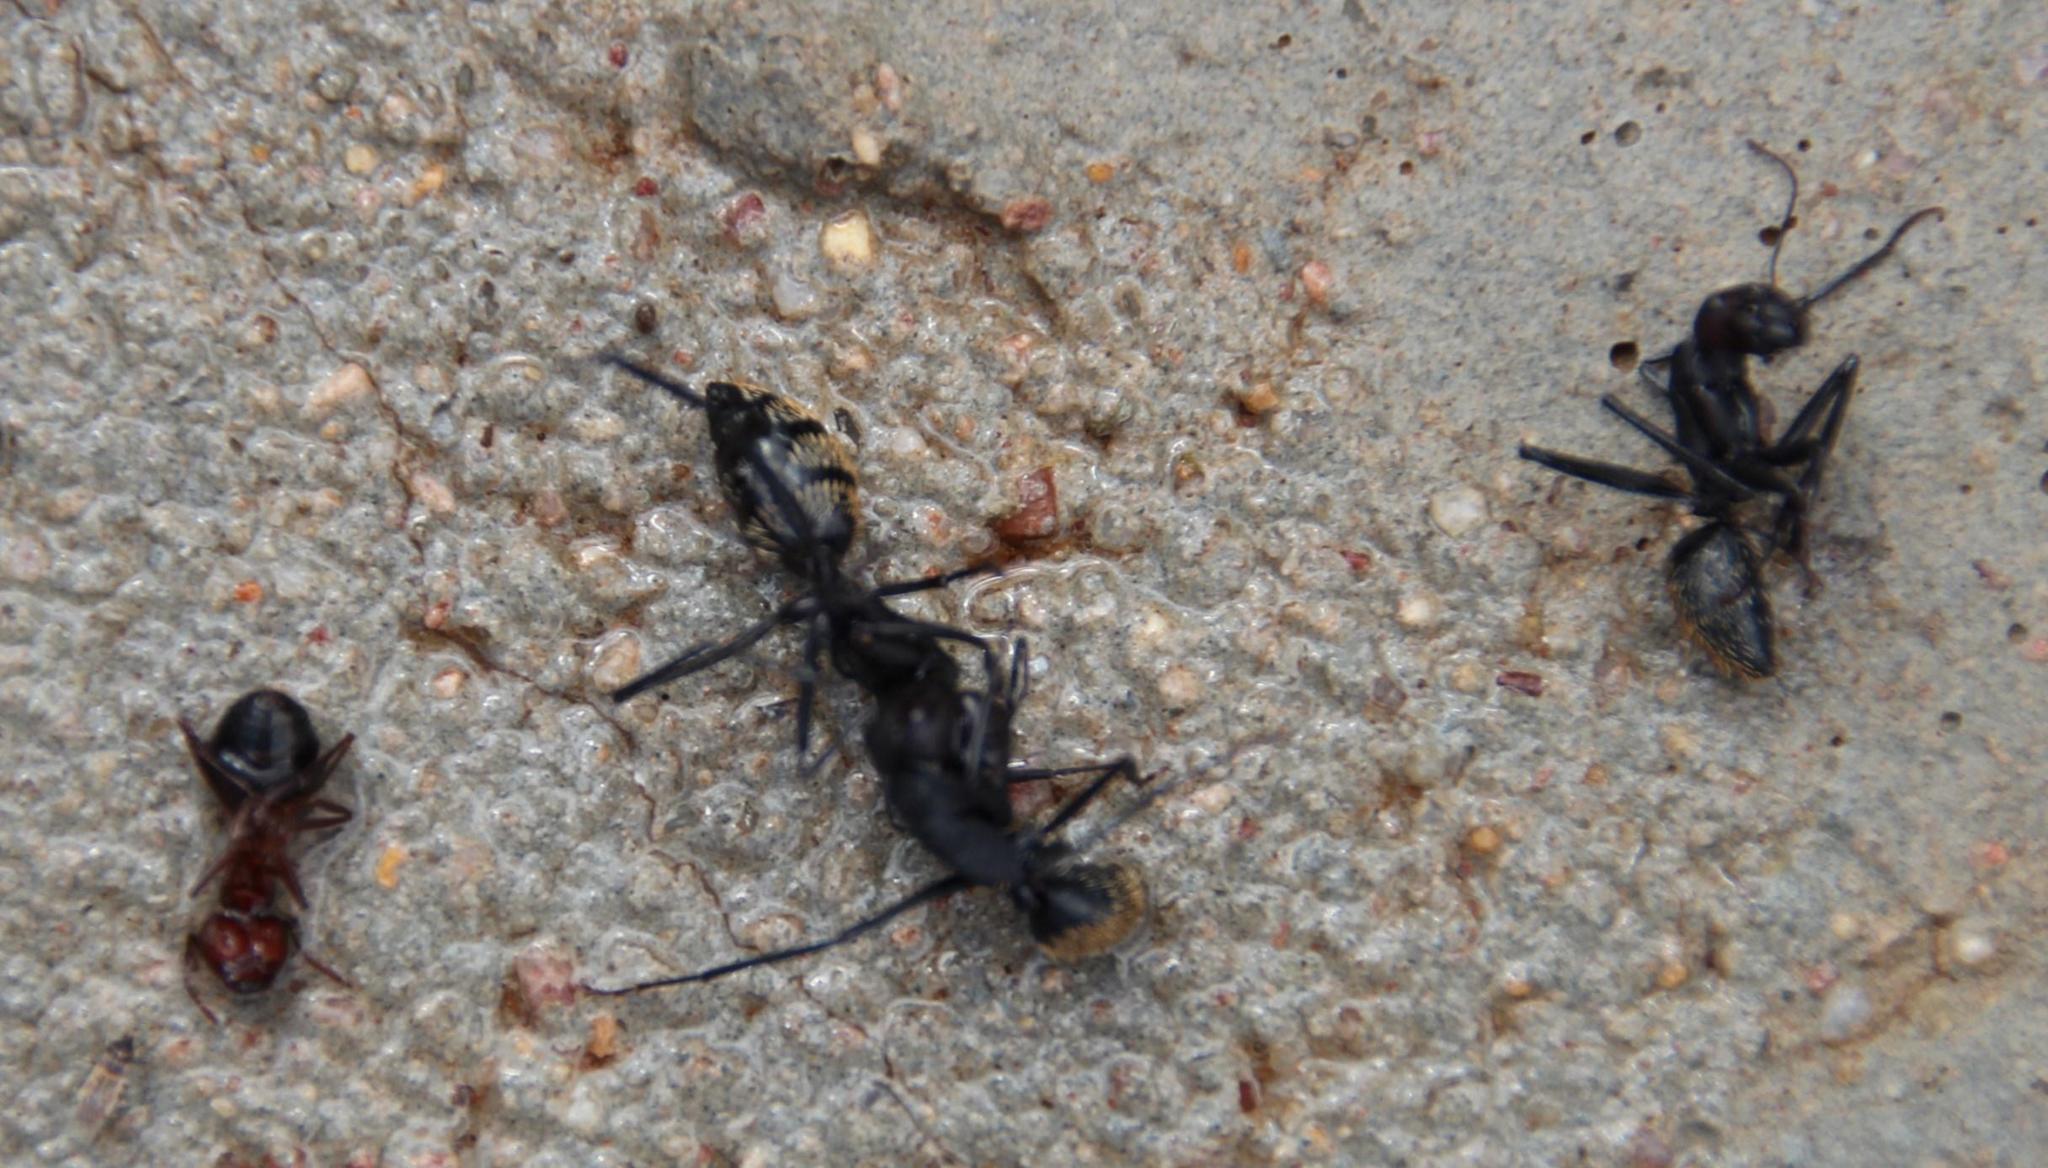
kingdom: Animalia
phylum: Arthropoda
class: Insecta
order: Hymenoptera
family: Formicidae
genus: Anoplolepis
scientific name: Anoplolepis steingroeveri
